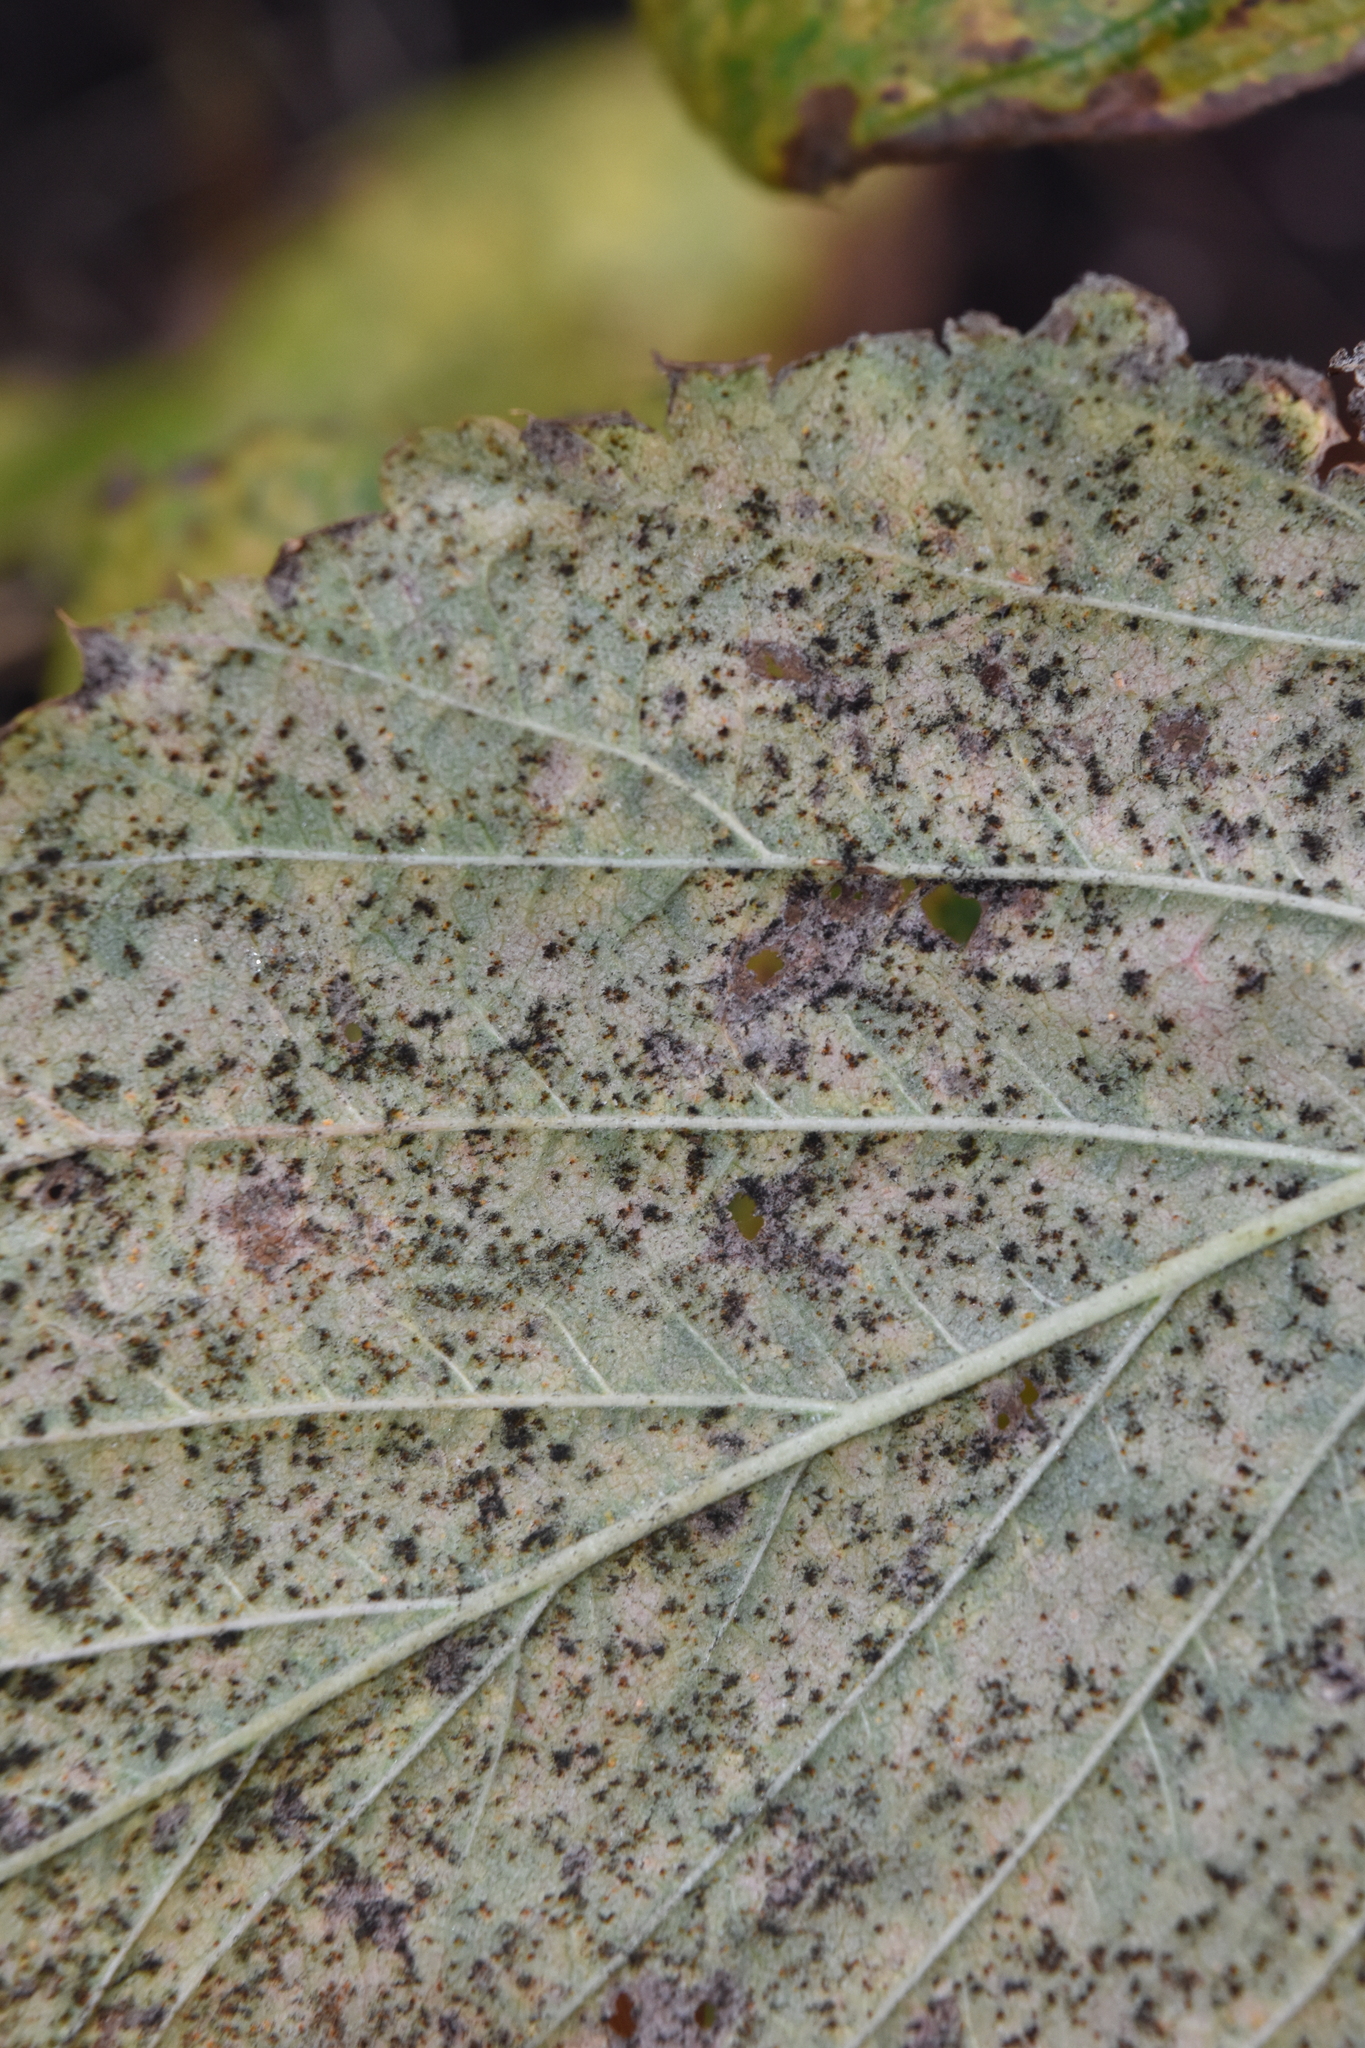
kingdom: Fungi
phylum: Basidiomycota
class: Pucciniomycetes
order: Pucciniales
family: Phragmidiaceae
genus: Phragmidium
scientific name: Phragmidium rubi-idaei
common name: Raspberry rust
